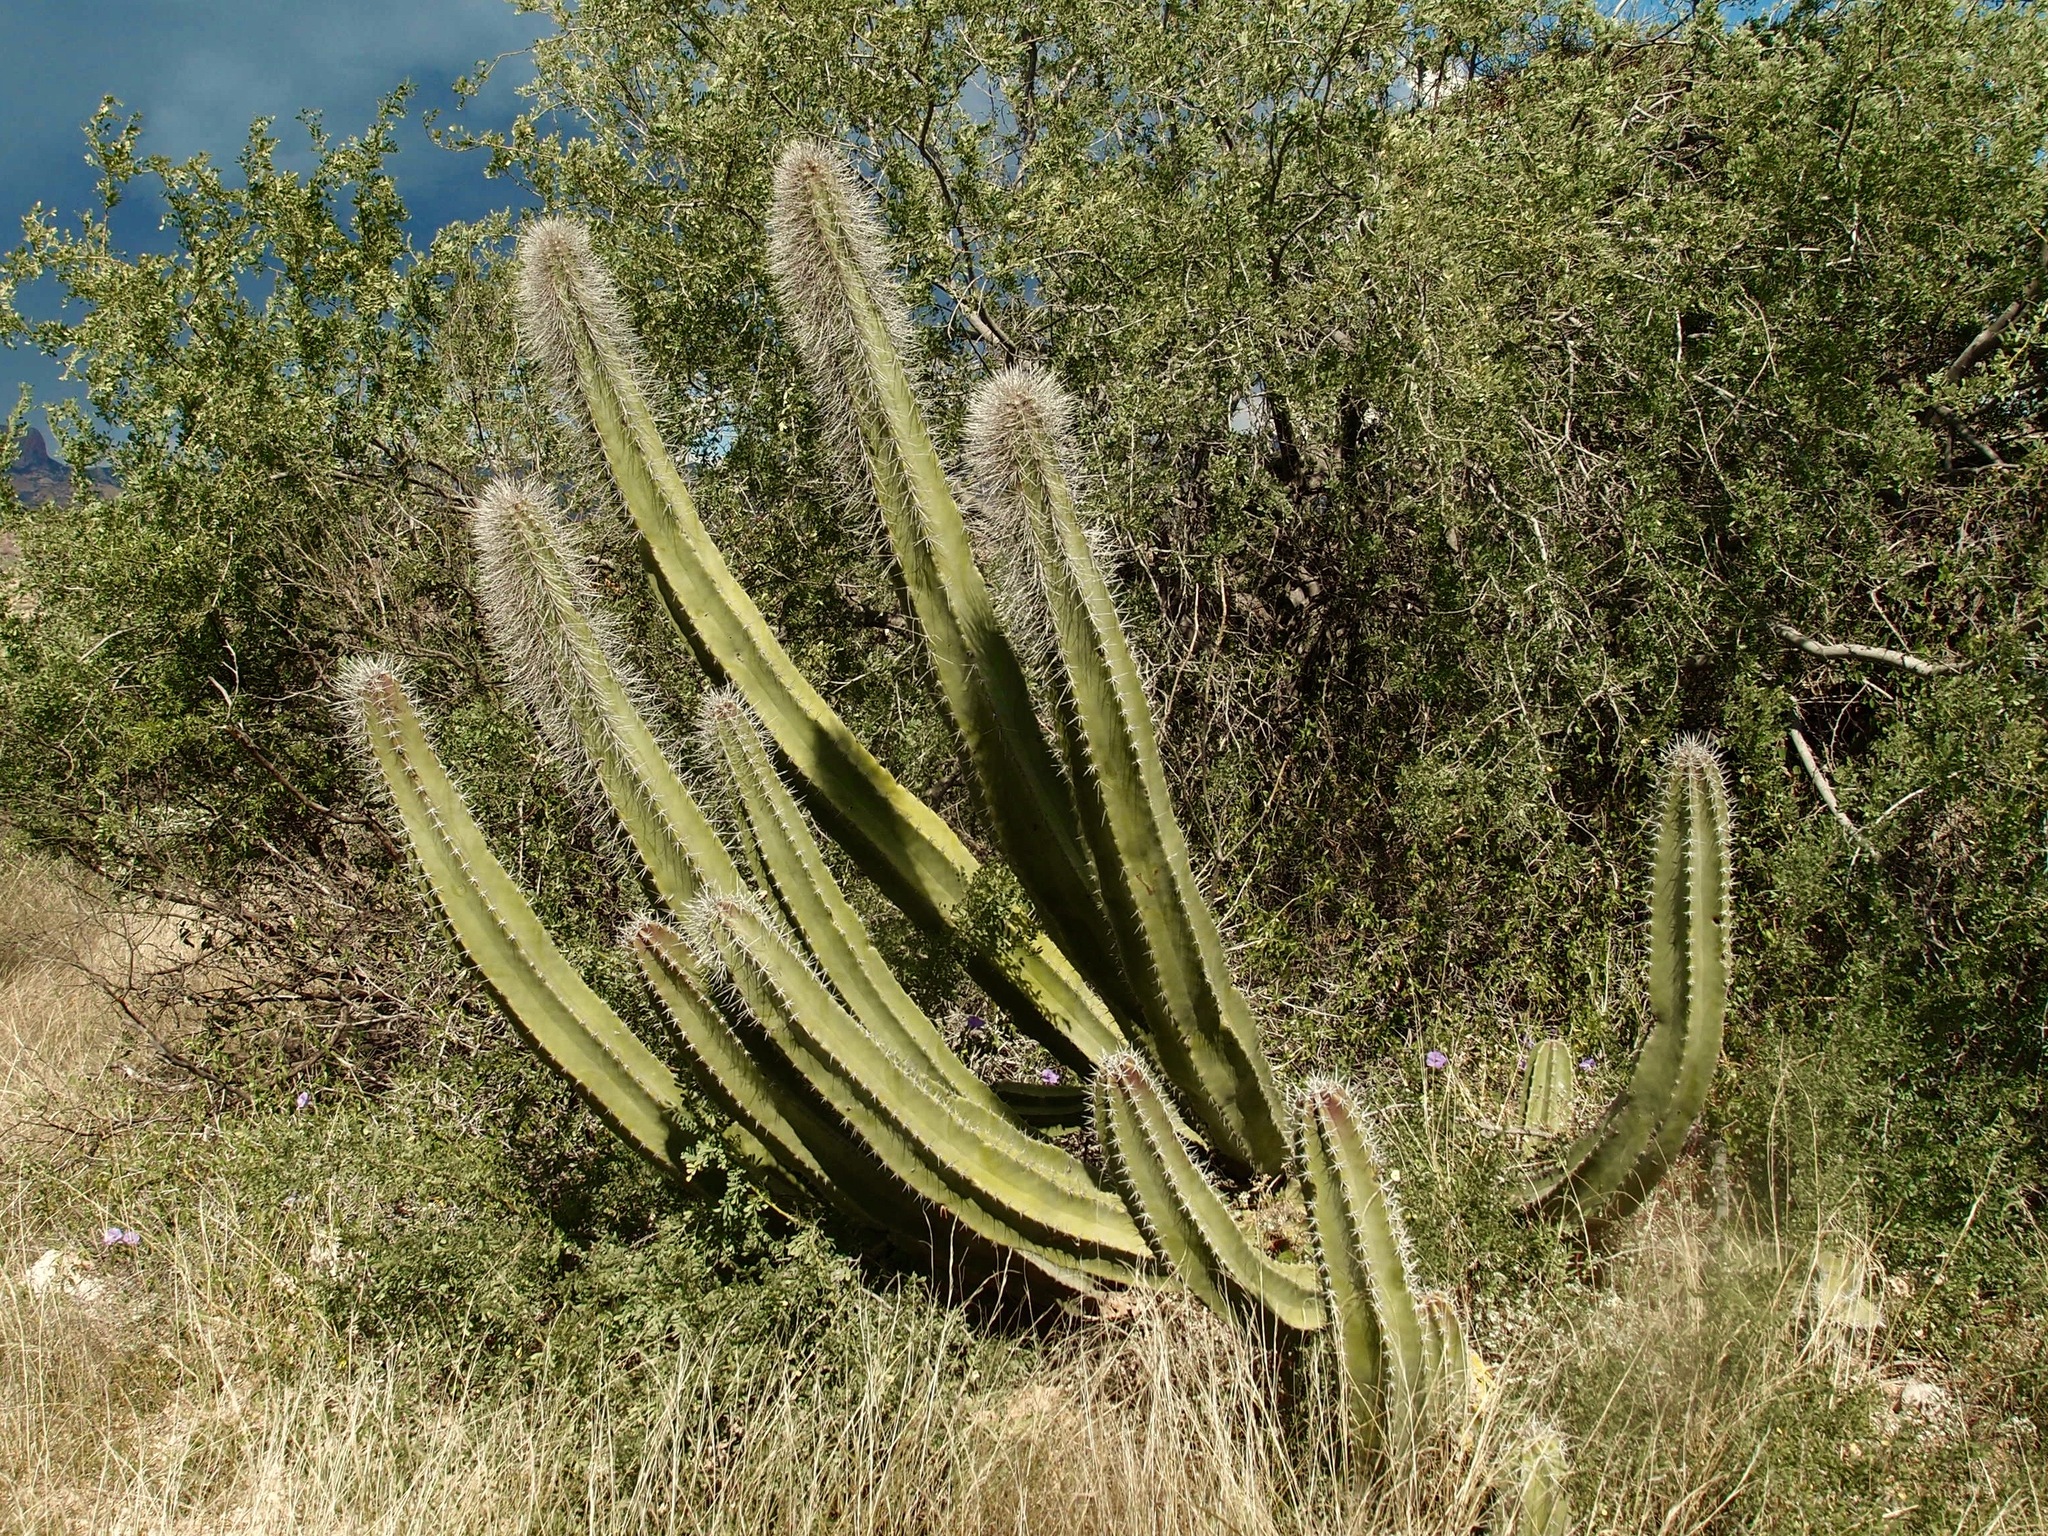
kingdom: Plantae
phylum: Tracheophyta
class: Magnoliopsida
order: Caryophyllales
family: Cactaceae
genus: Pachycereus
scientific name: Pachycereus schottii
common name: Senita cactus
